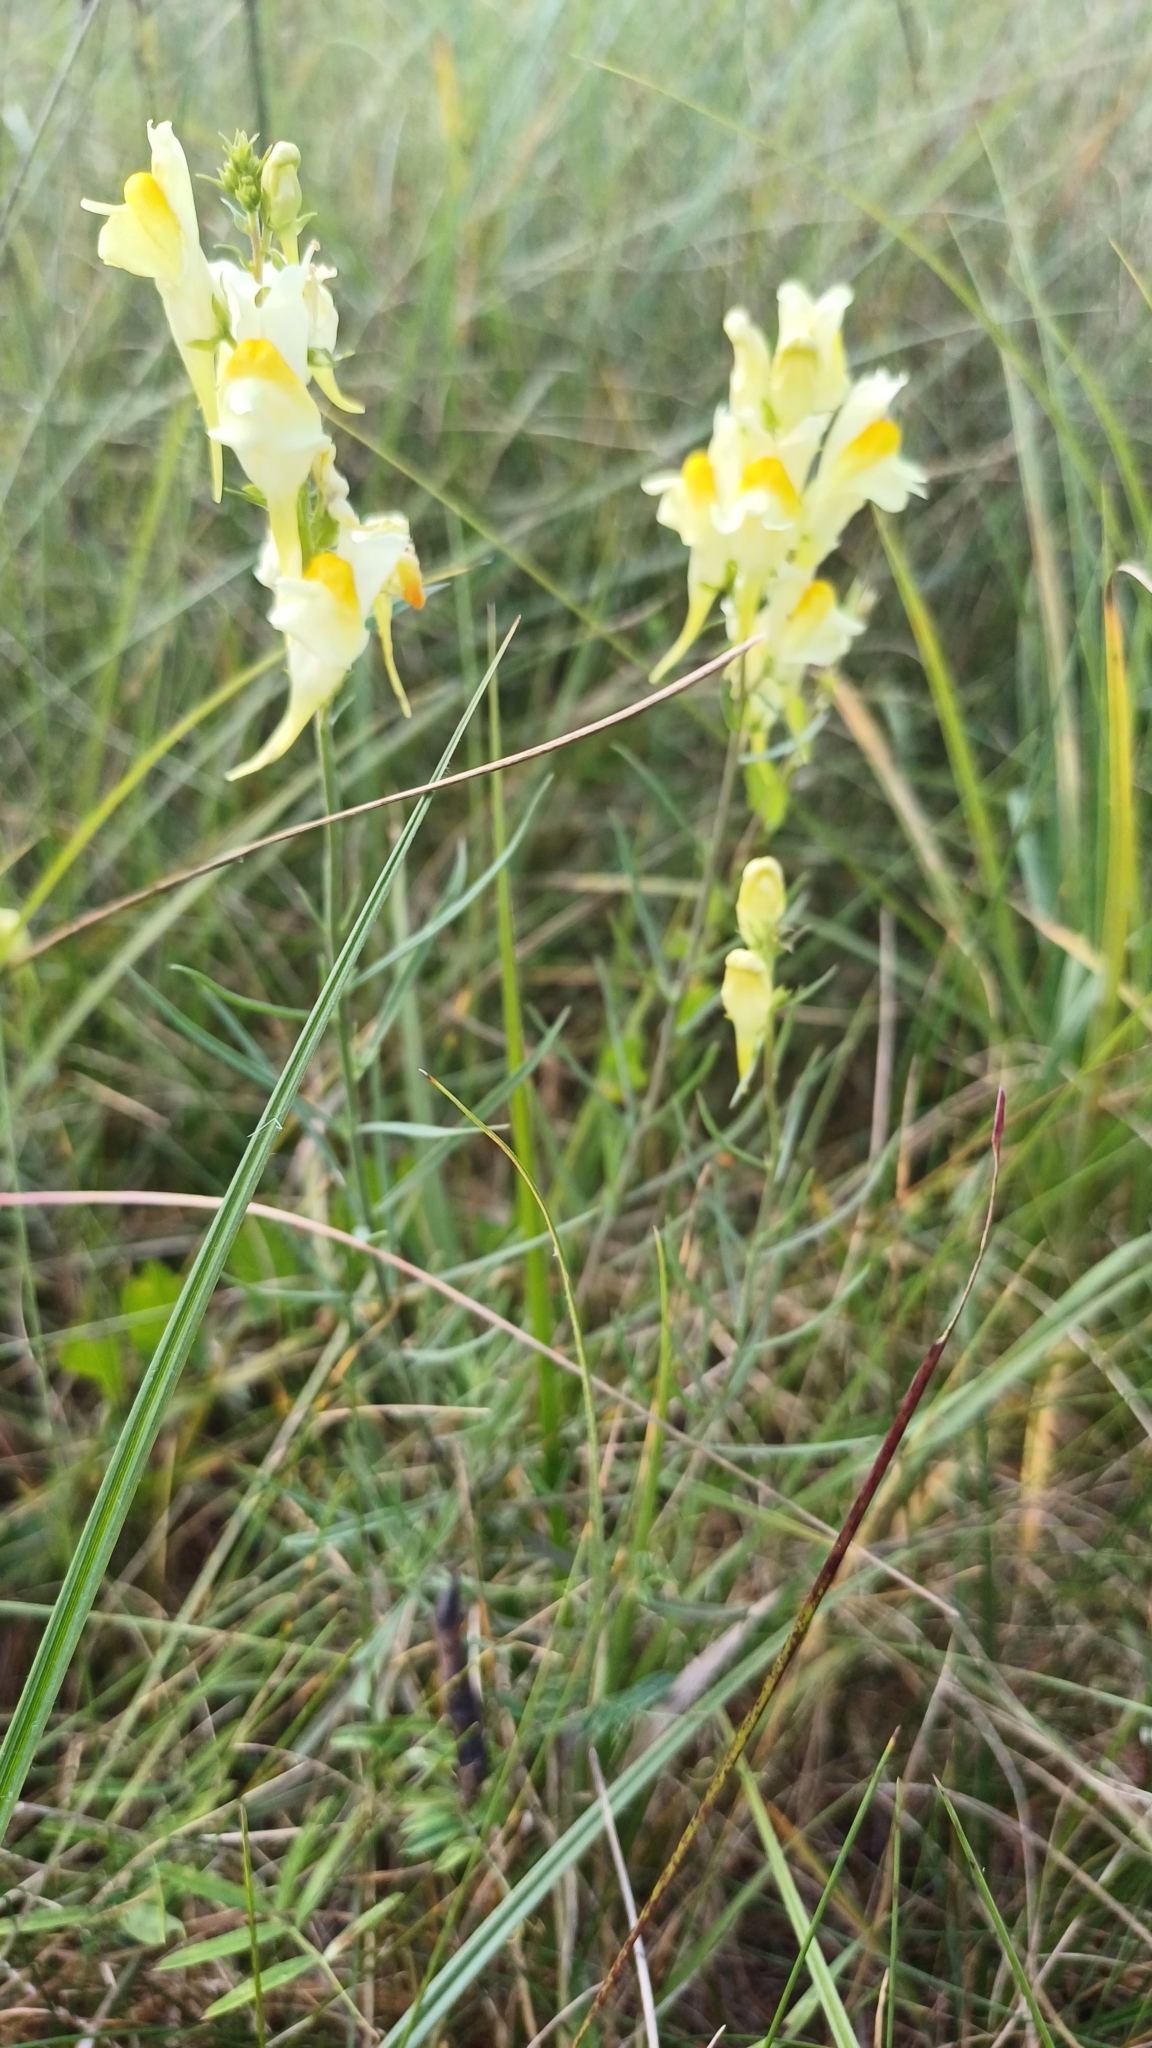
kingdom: Plantae
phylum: Tracheophyta
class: Magnoliopsida
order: Lamiales
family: Plantaginaceae
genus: Linaria
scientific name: Linaria vulgaris
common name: Butter and eggs
